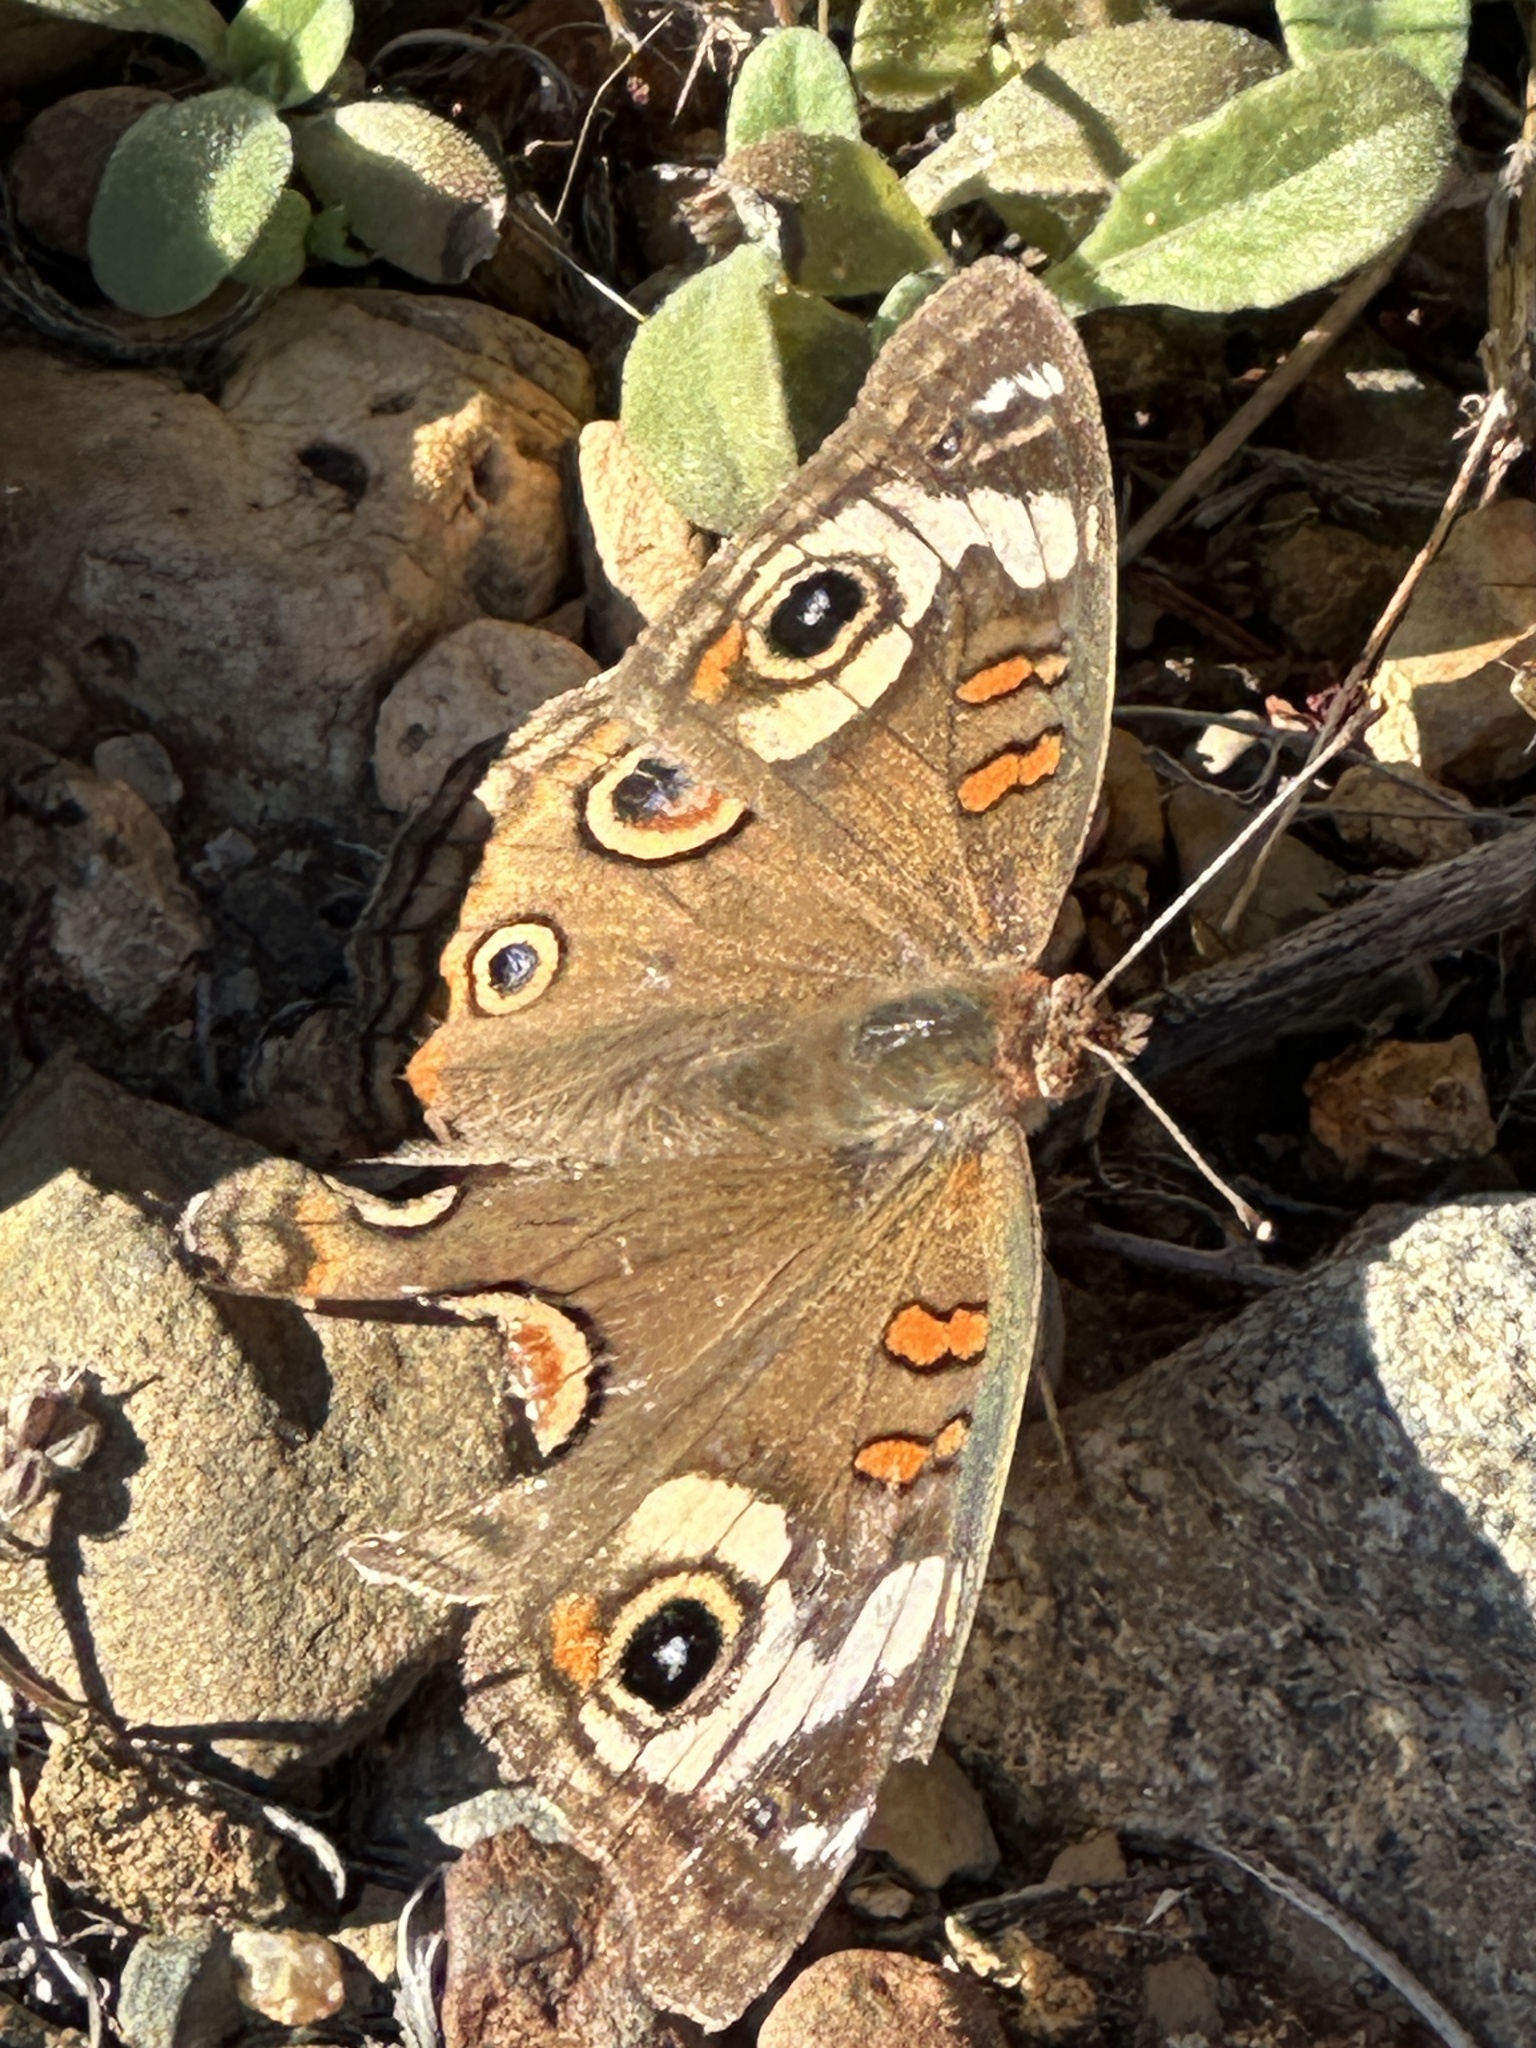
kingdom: Animalia
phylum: Arthropoda
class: Insecta
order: Lepidoptera
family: Nymphalidae
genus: Junonia
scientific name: Junonia grisea
